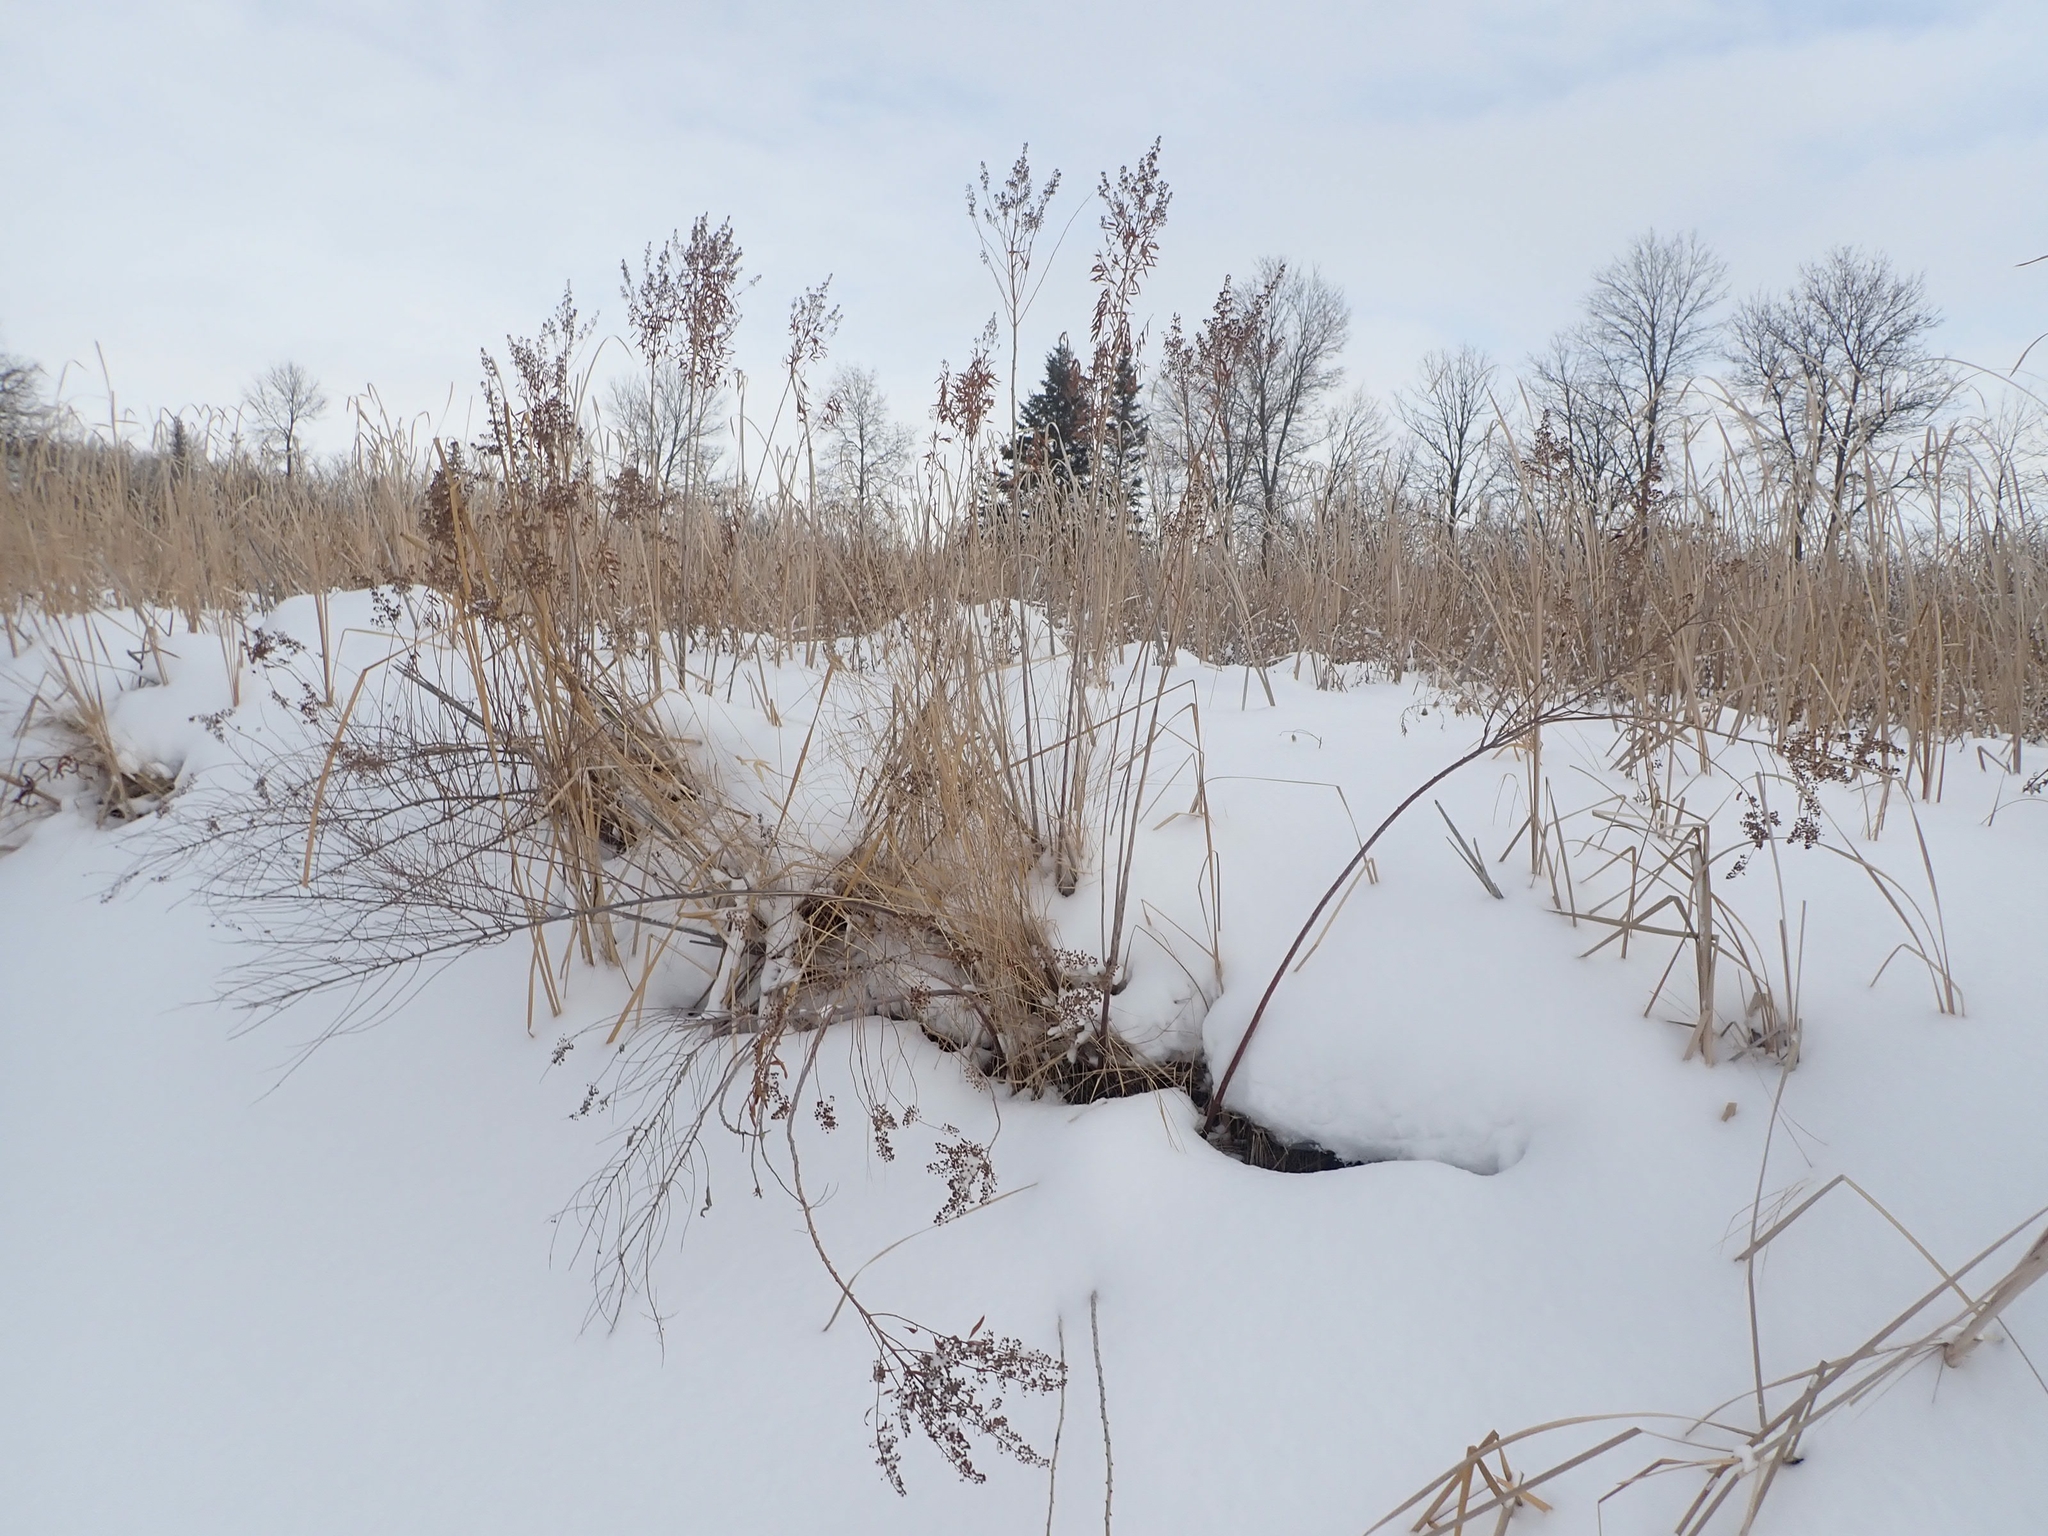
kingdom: Plantae
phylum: Tracheophyta
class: Magnoliopsida
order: Rosales
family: Rosaceae
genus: Spiraea
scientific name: Spiraea alba
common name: Pale bridewort
